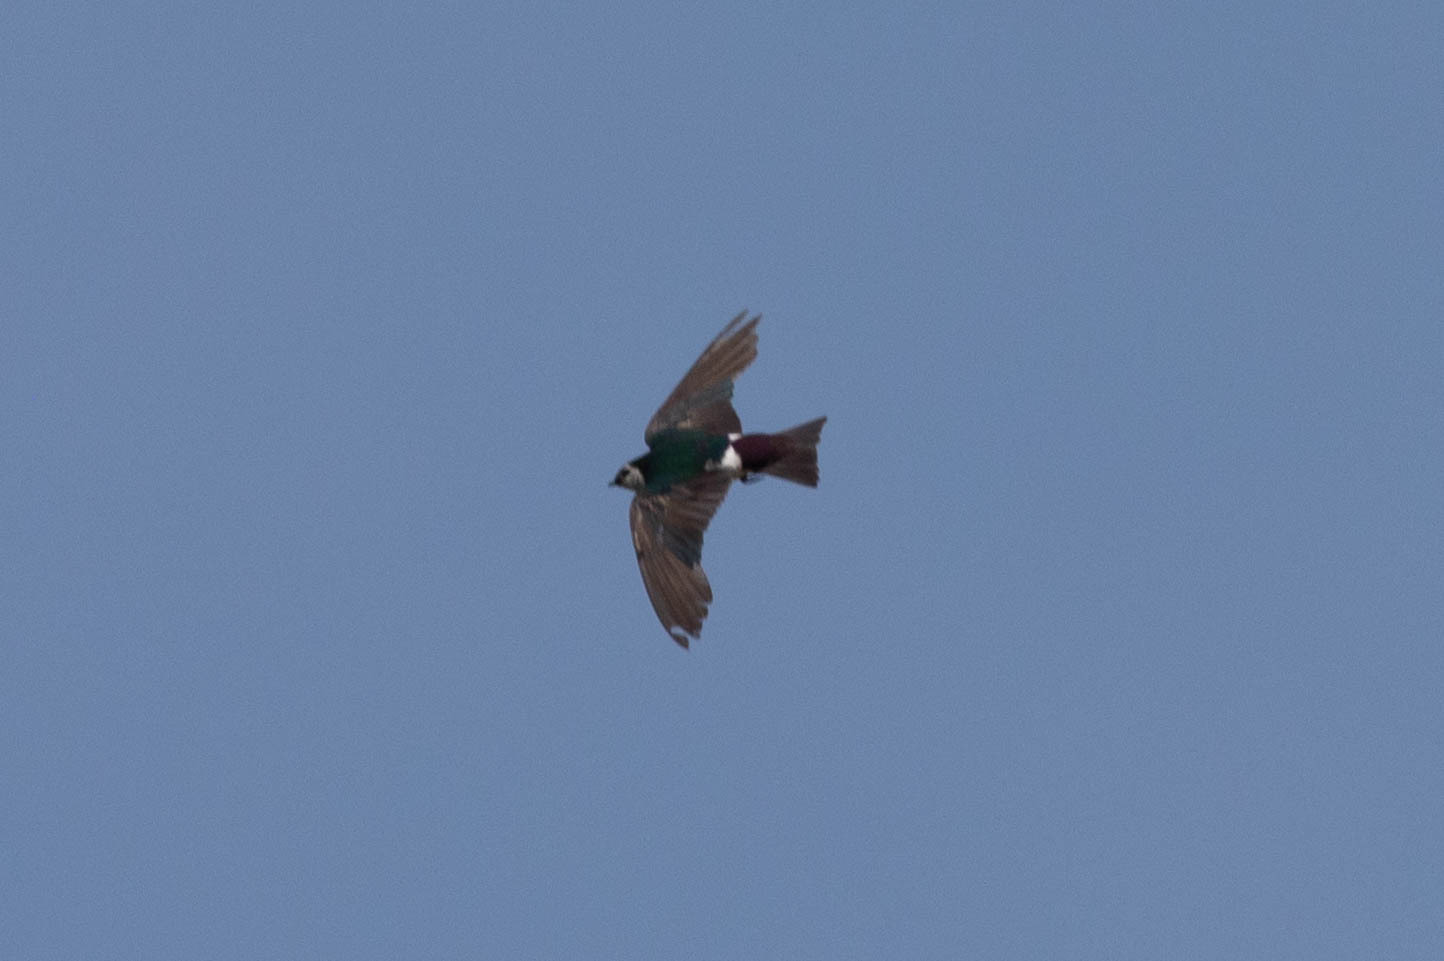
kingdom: Animalia
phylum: Chordata
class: Aves
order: Passeriformes
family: Hirundinidae
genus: Tachycineta
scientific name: Tachycineta thalassina
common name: Violet-green swallow
